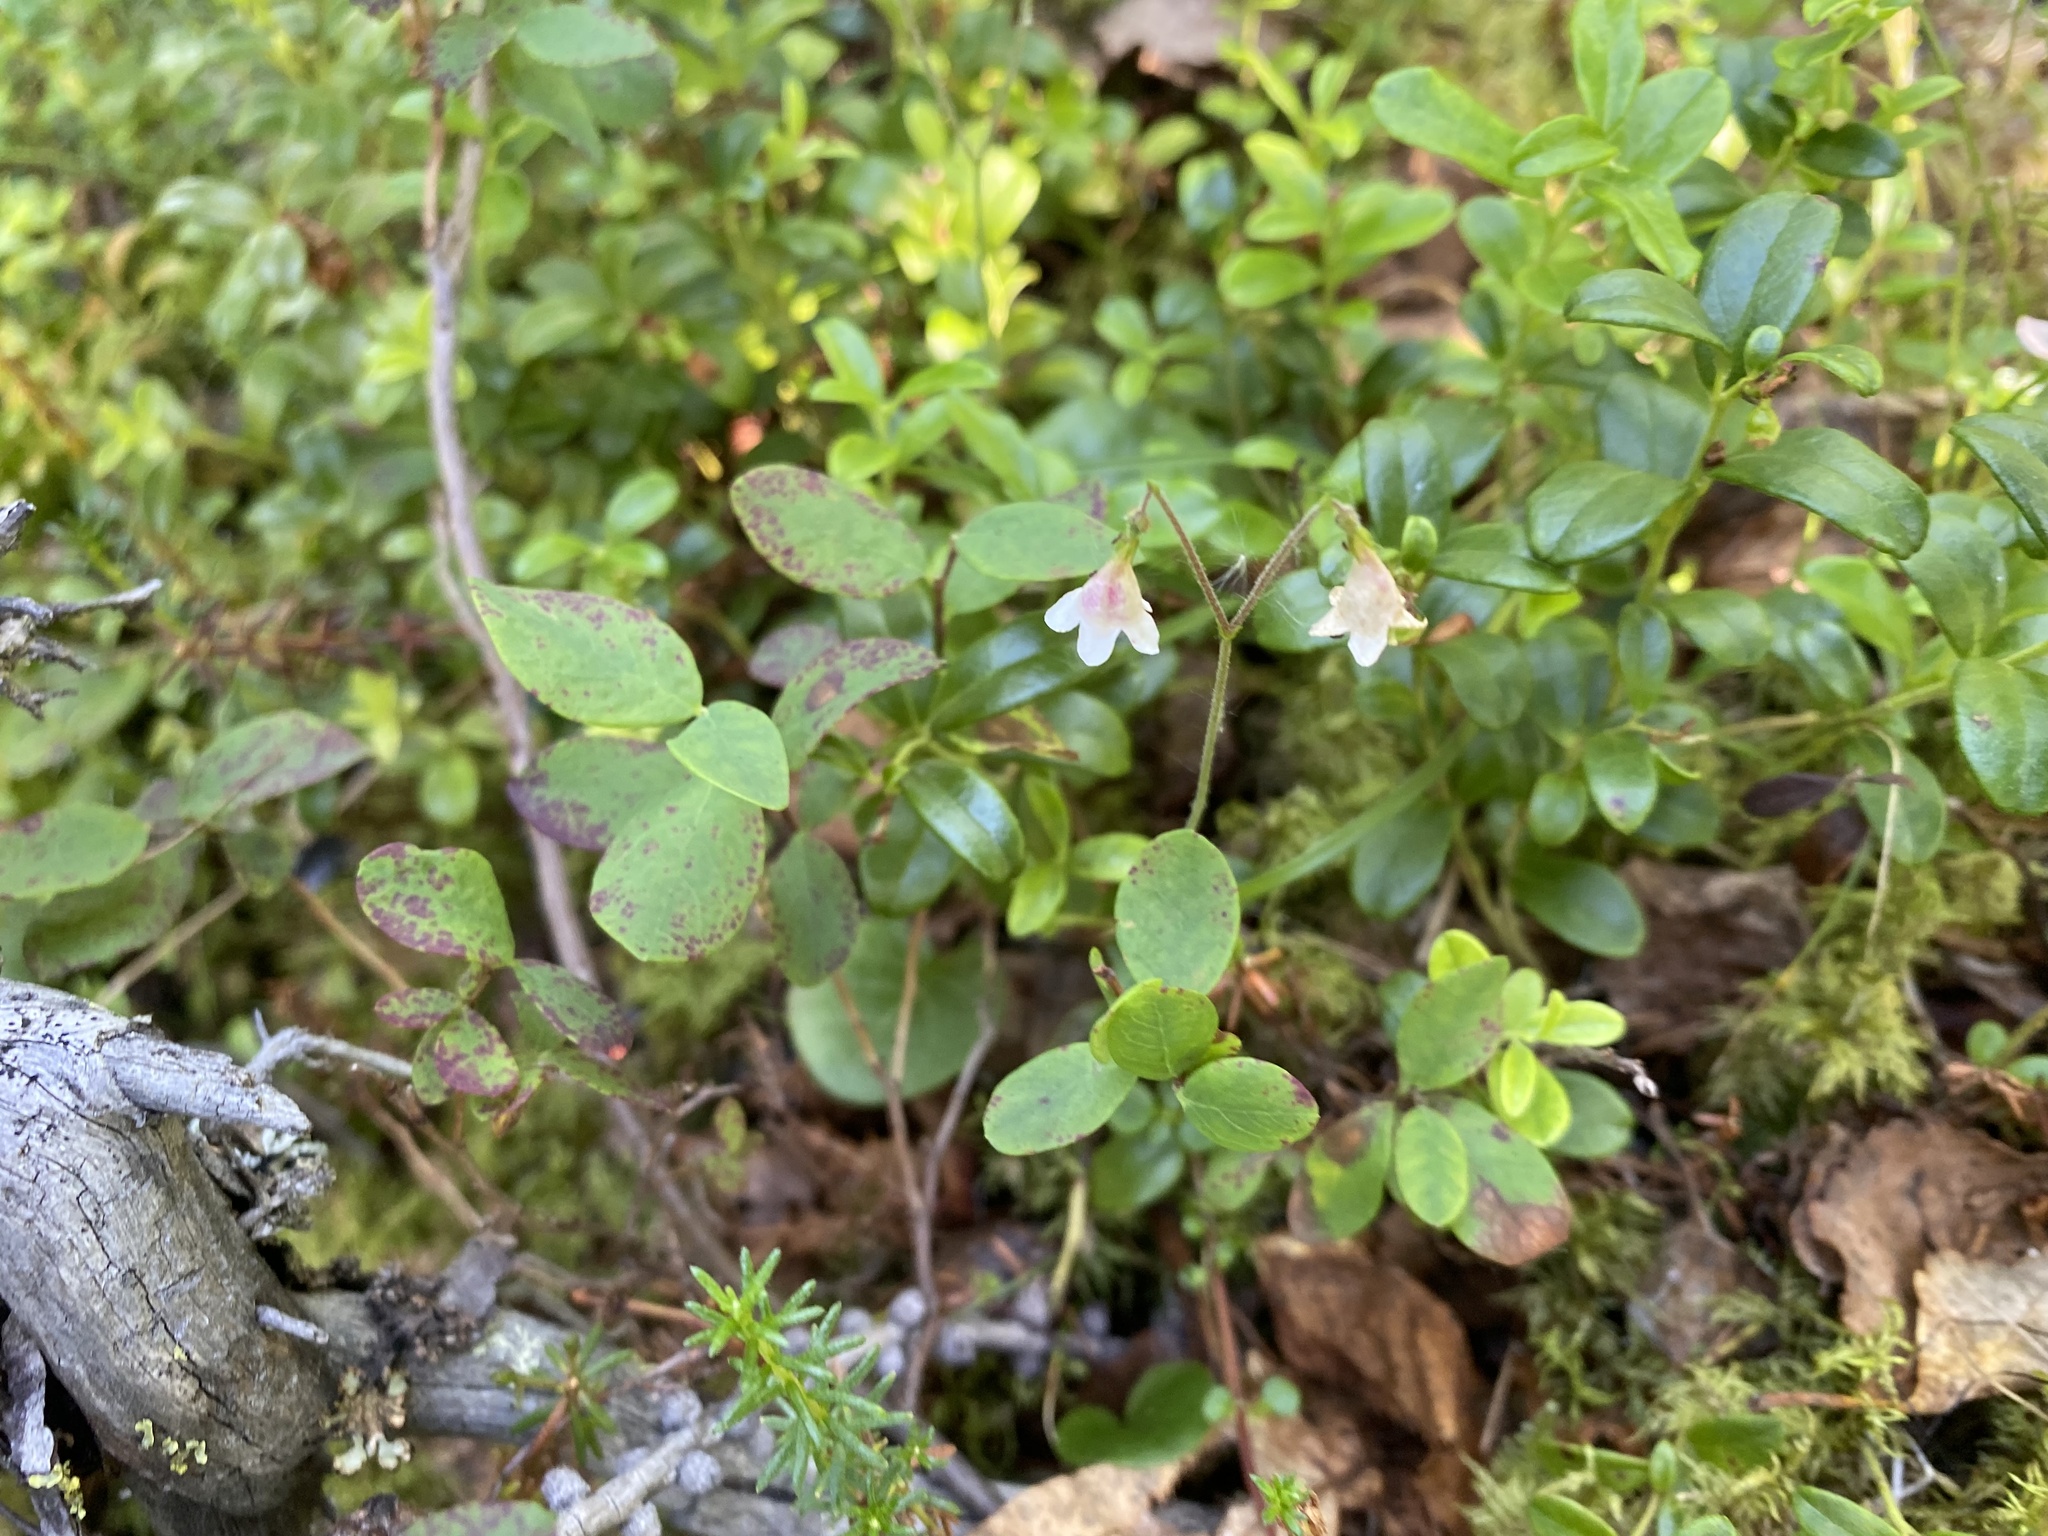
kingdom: Plantae
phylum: Tracheophyta
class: Magnoliopsida
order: Dipsacales
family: Caprifoliaceae
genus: Linnaea
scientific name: Linnaea borealis
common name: Twinflower
